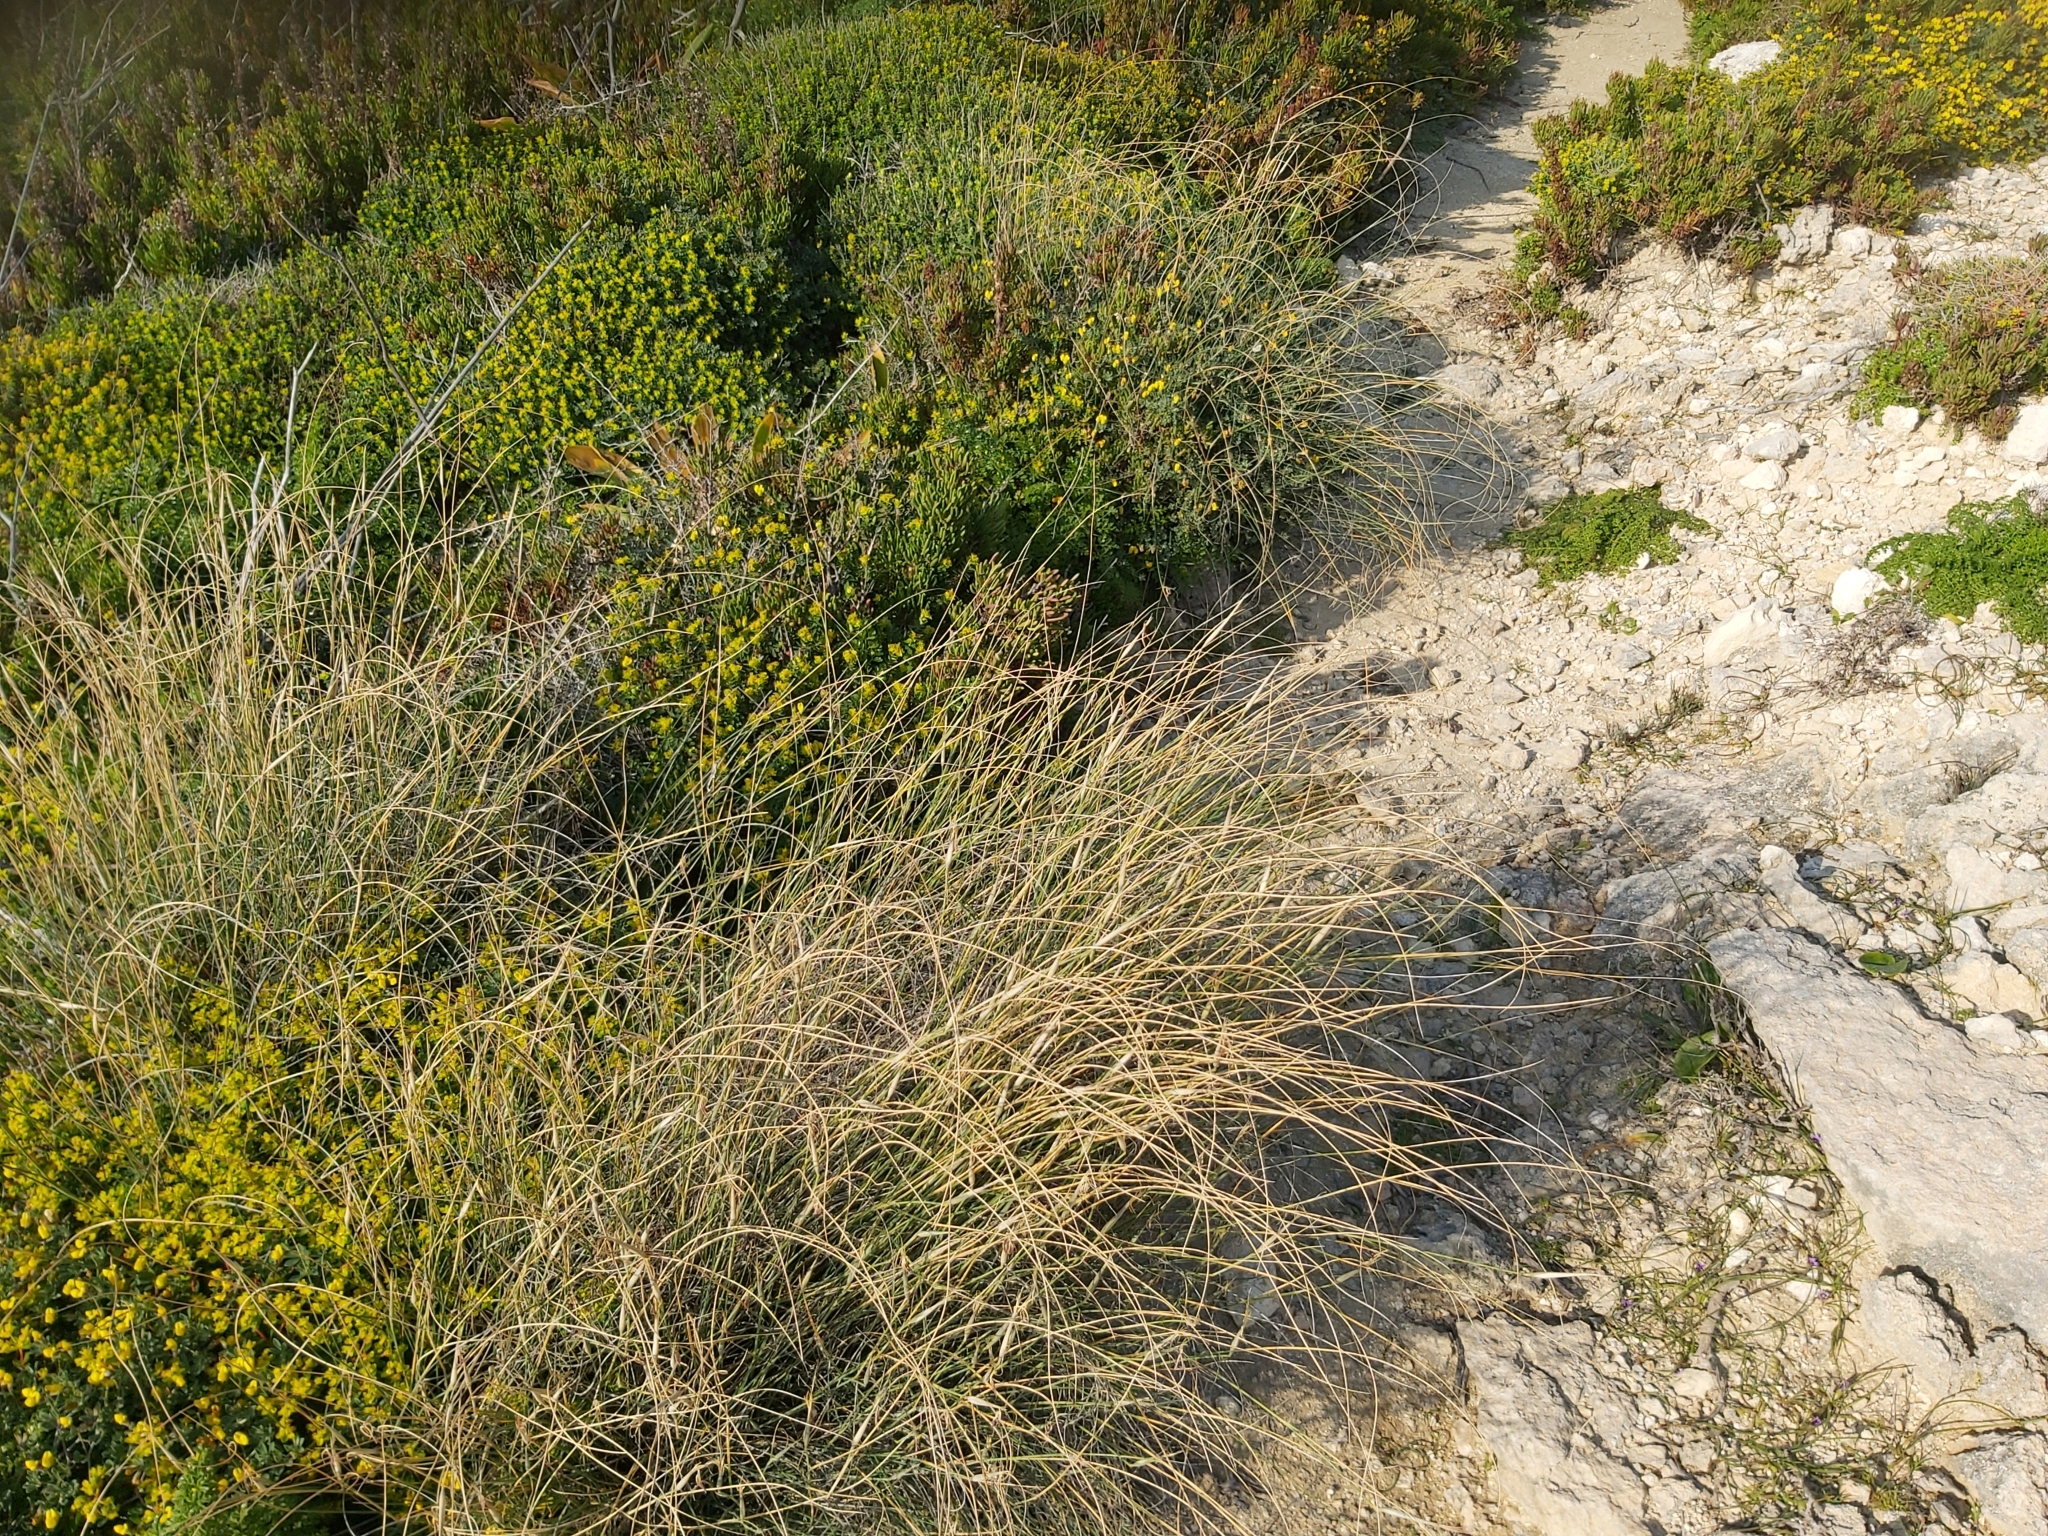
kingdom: Plantae
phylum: Tracheophyta
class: Liliopsida
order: Poales
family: Poaceae
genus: Lygeum
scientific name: Lygeum spartum
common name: Albardine
